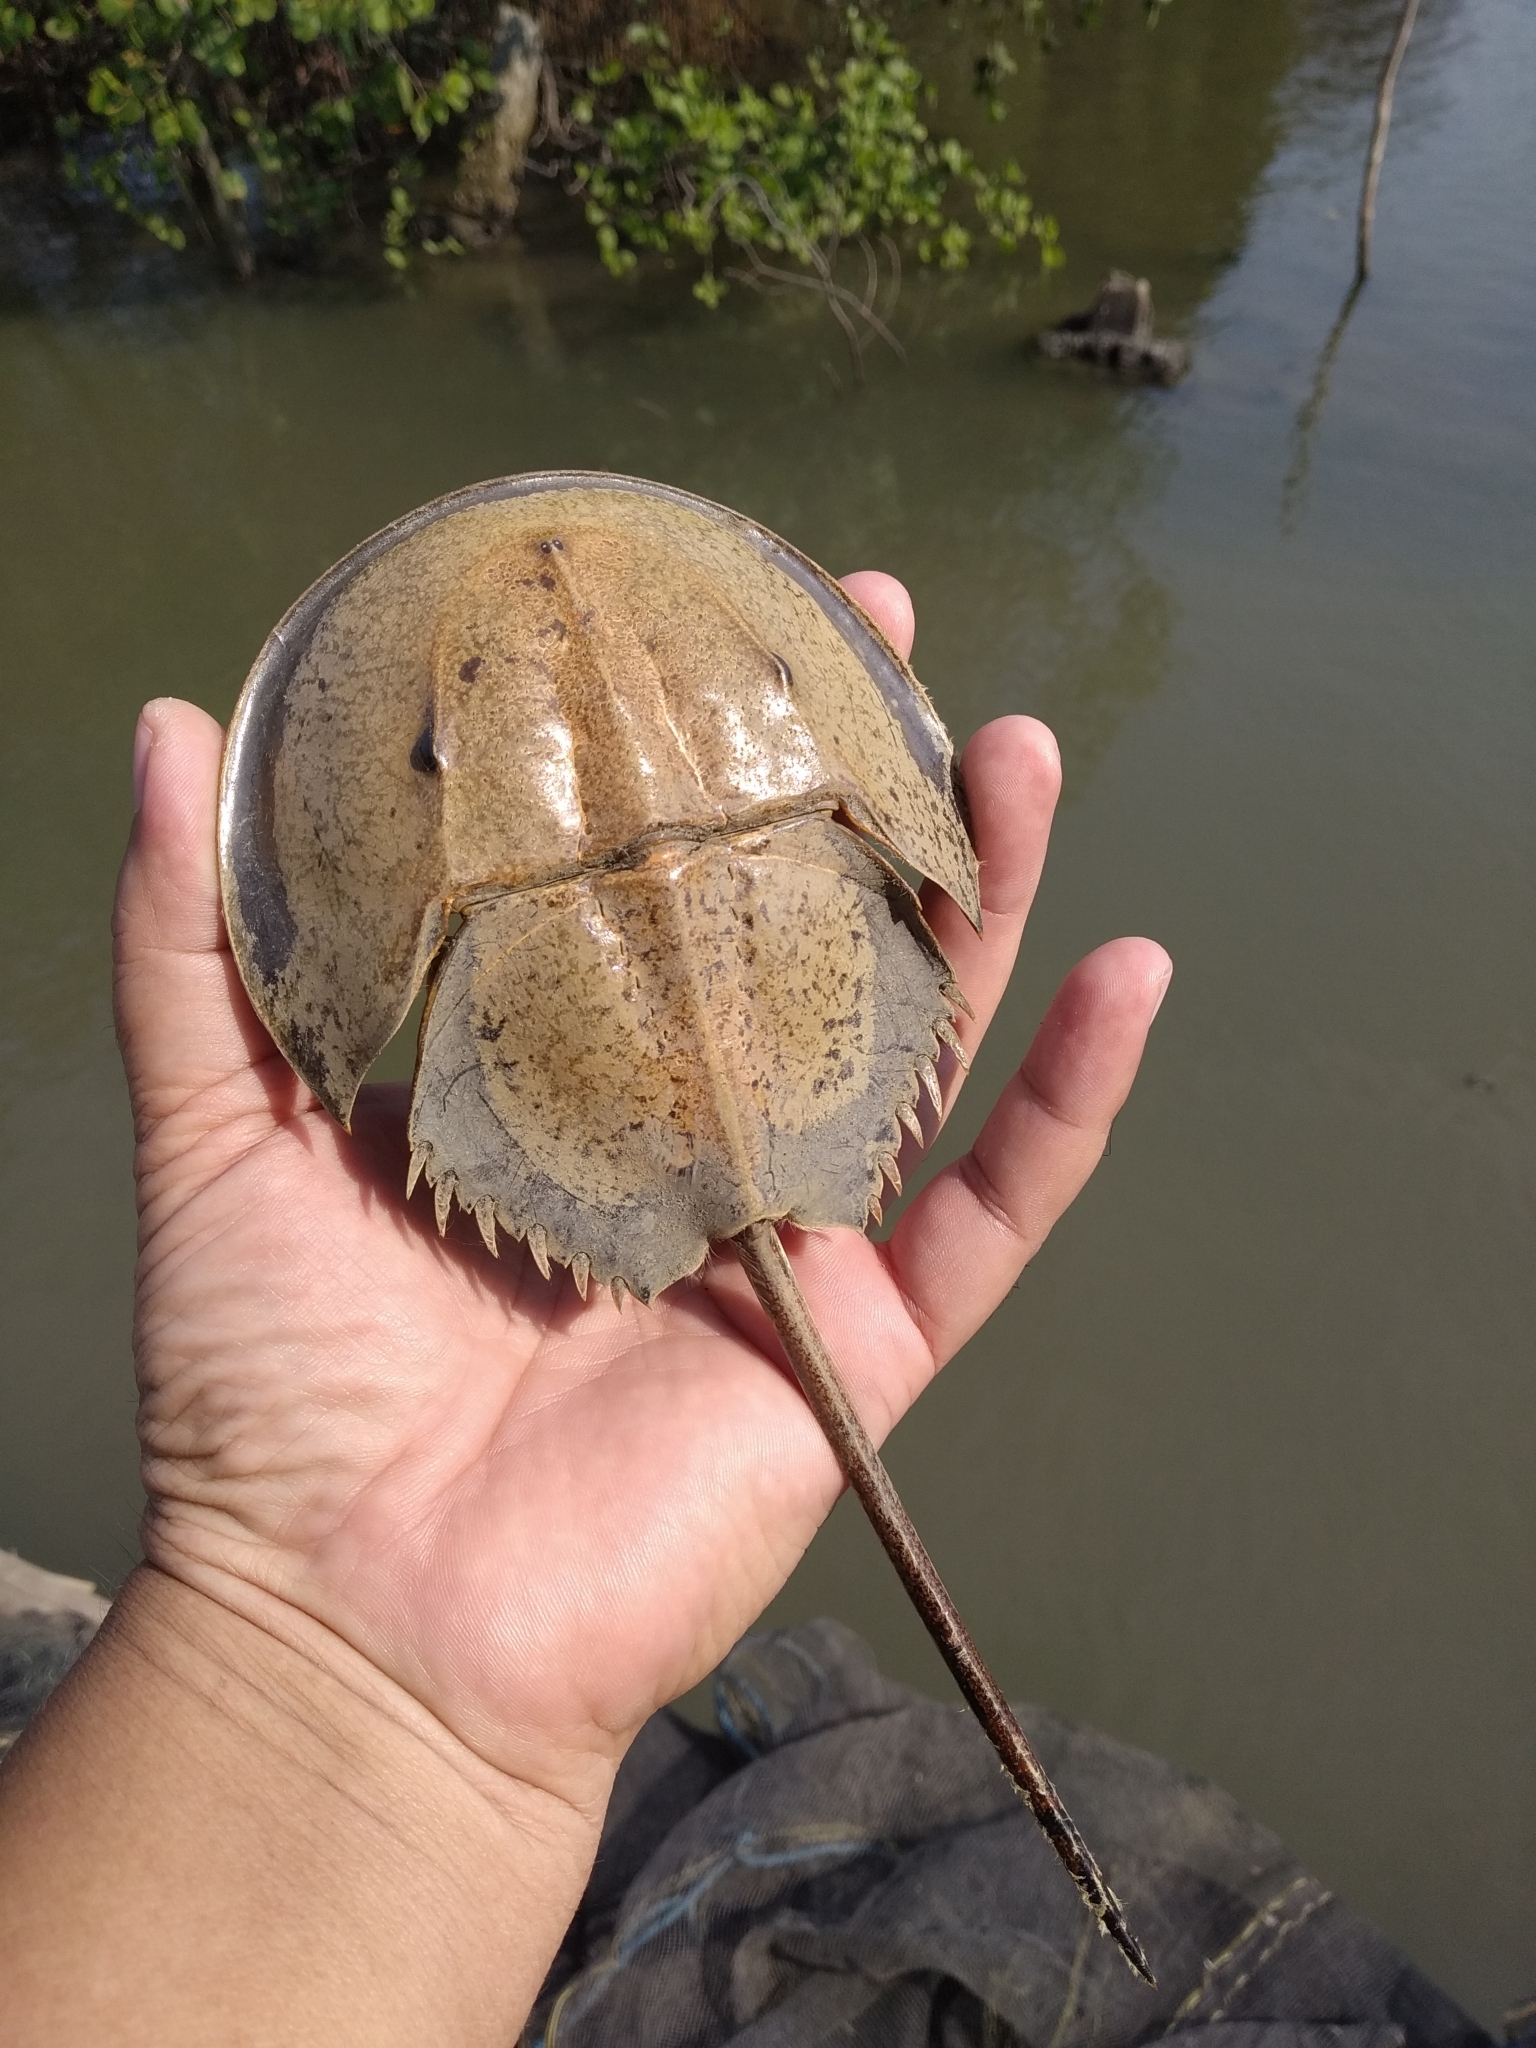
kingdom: Animalia
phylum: Arthropoda
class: Merostomata
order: Xiphosurida
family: Limulidae
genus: Carcinoscorpius
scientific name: Carcinoscorpius rotundicauda
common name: Horseshoe crab
